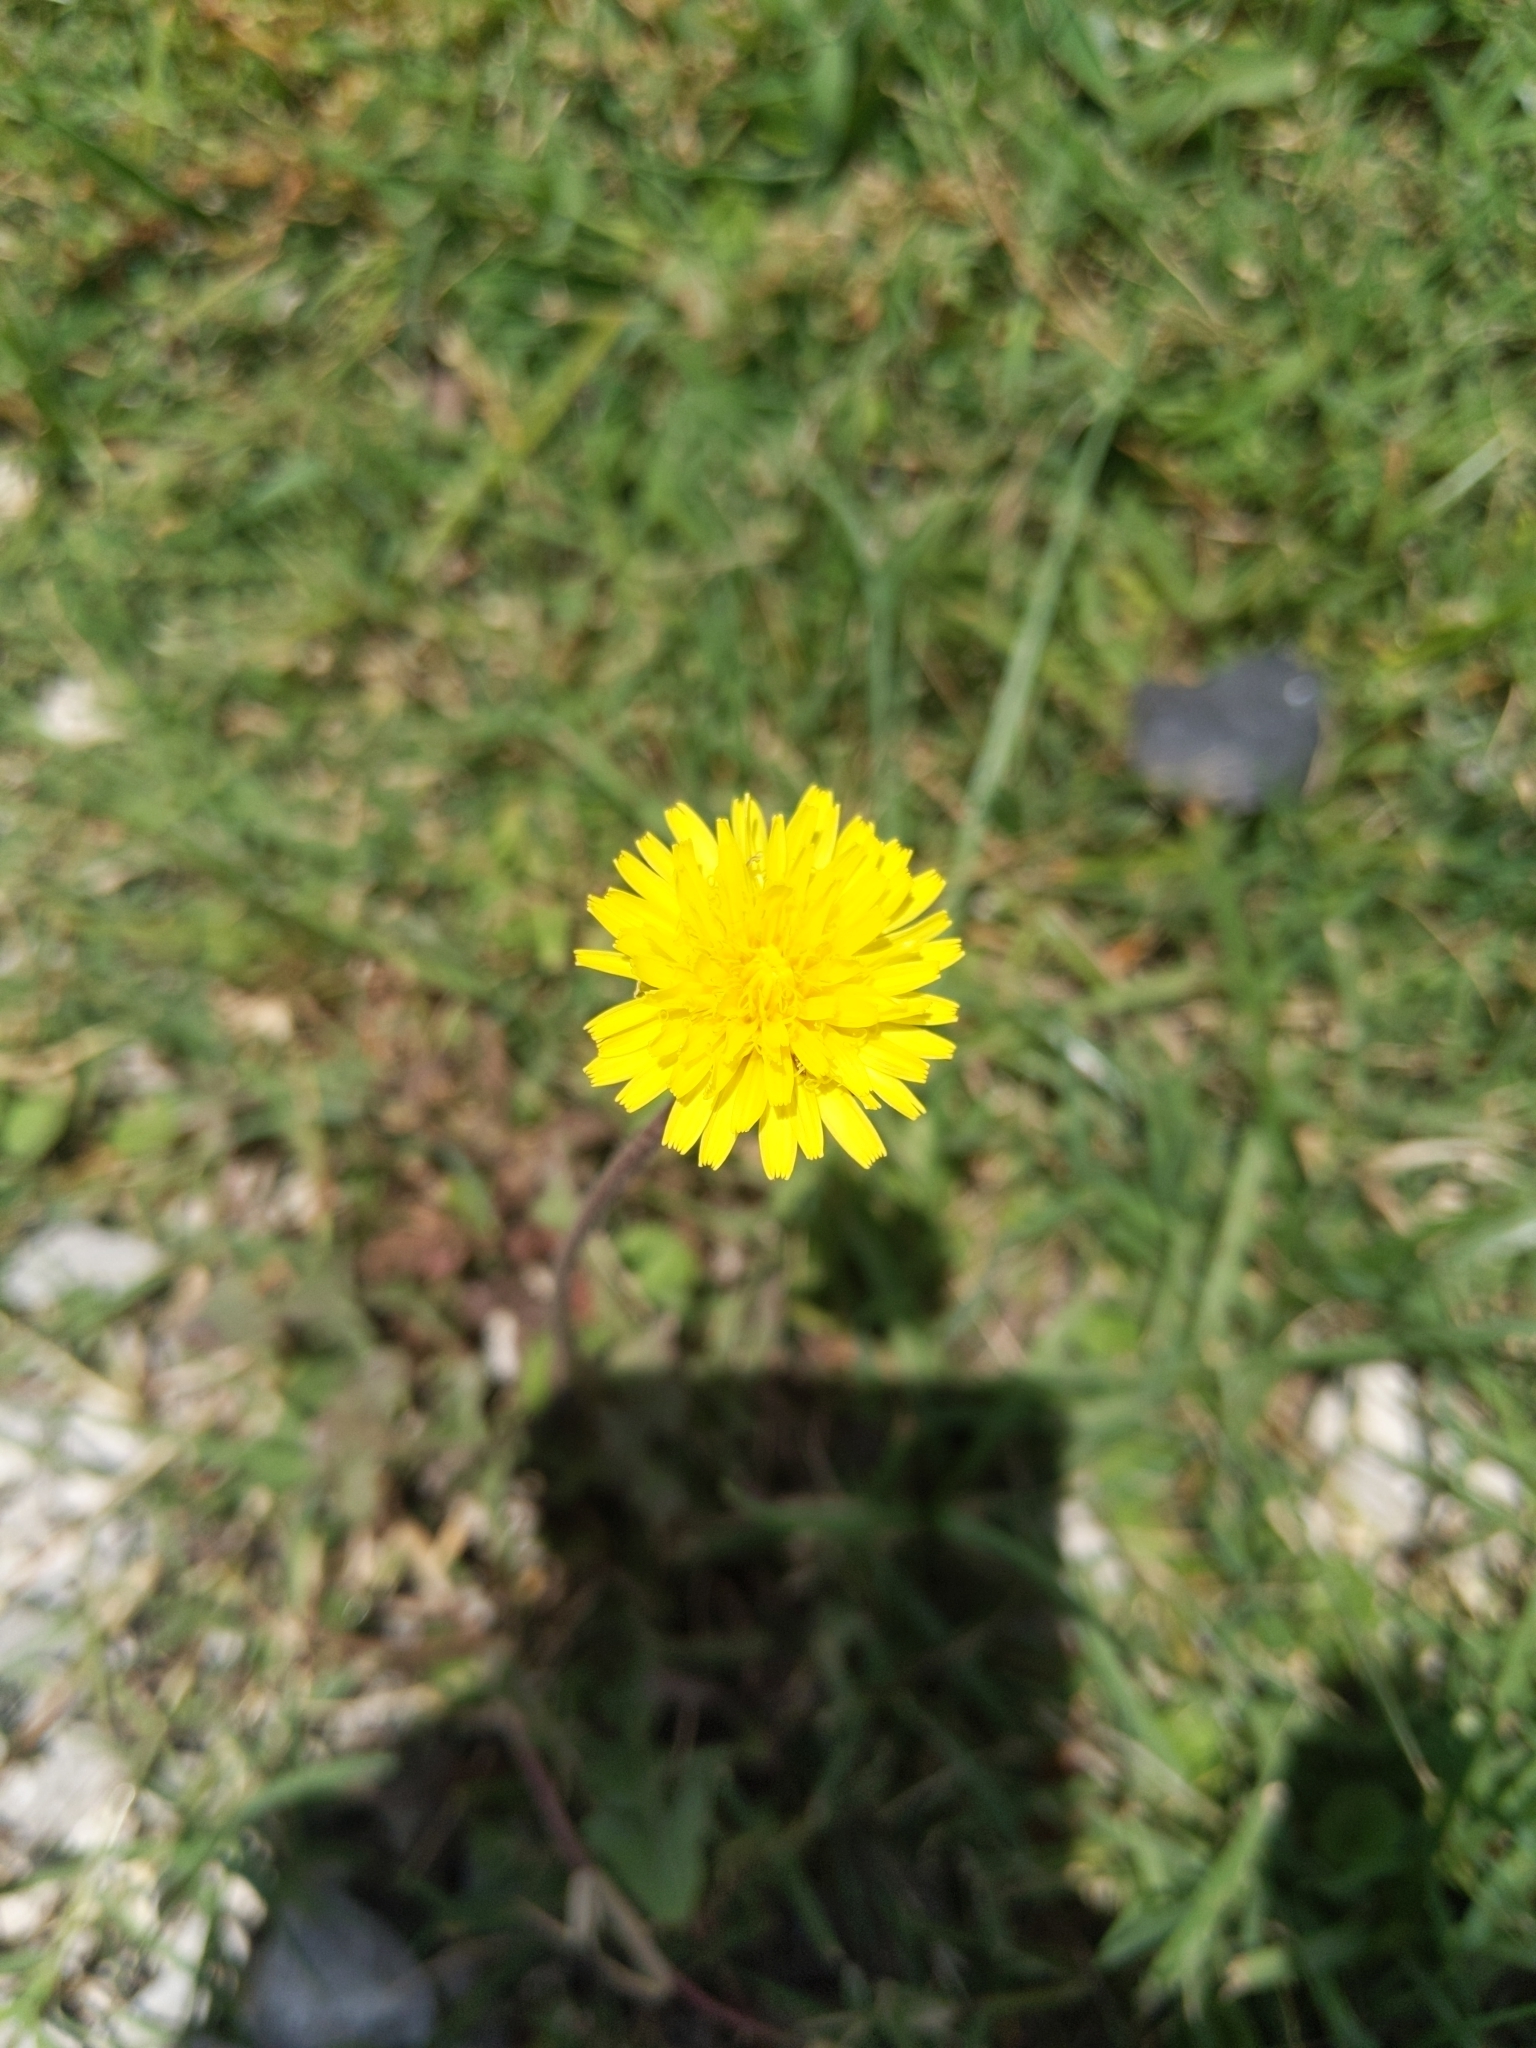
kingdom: Plantae
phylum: Tracheophyta
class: Magnoliopsida
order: Asterales
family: Asteraceae
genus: Taraxacum
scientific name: Taraxacum officinale
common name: Common dandelion
